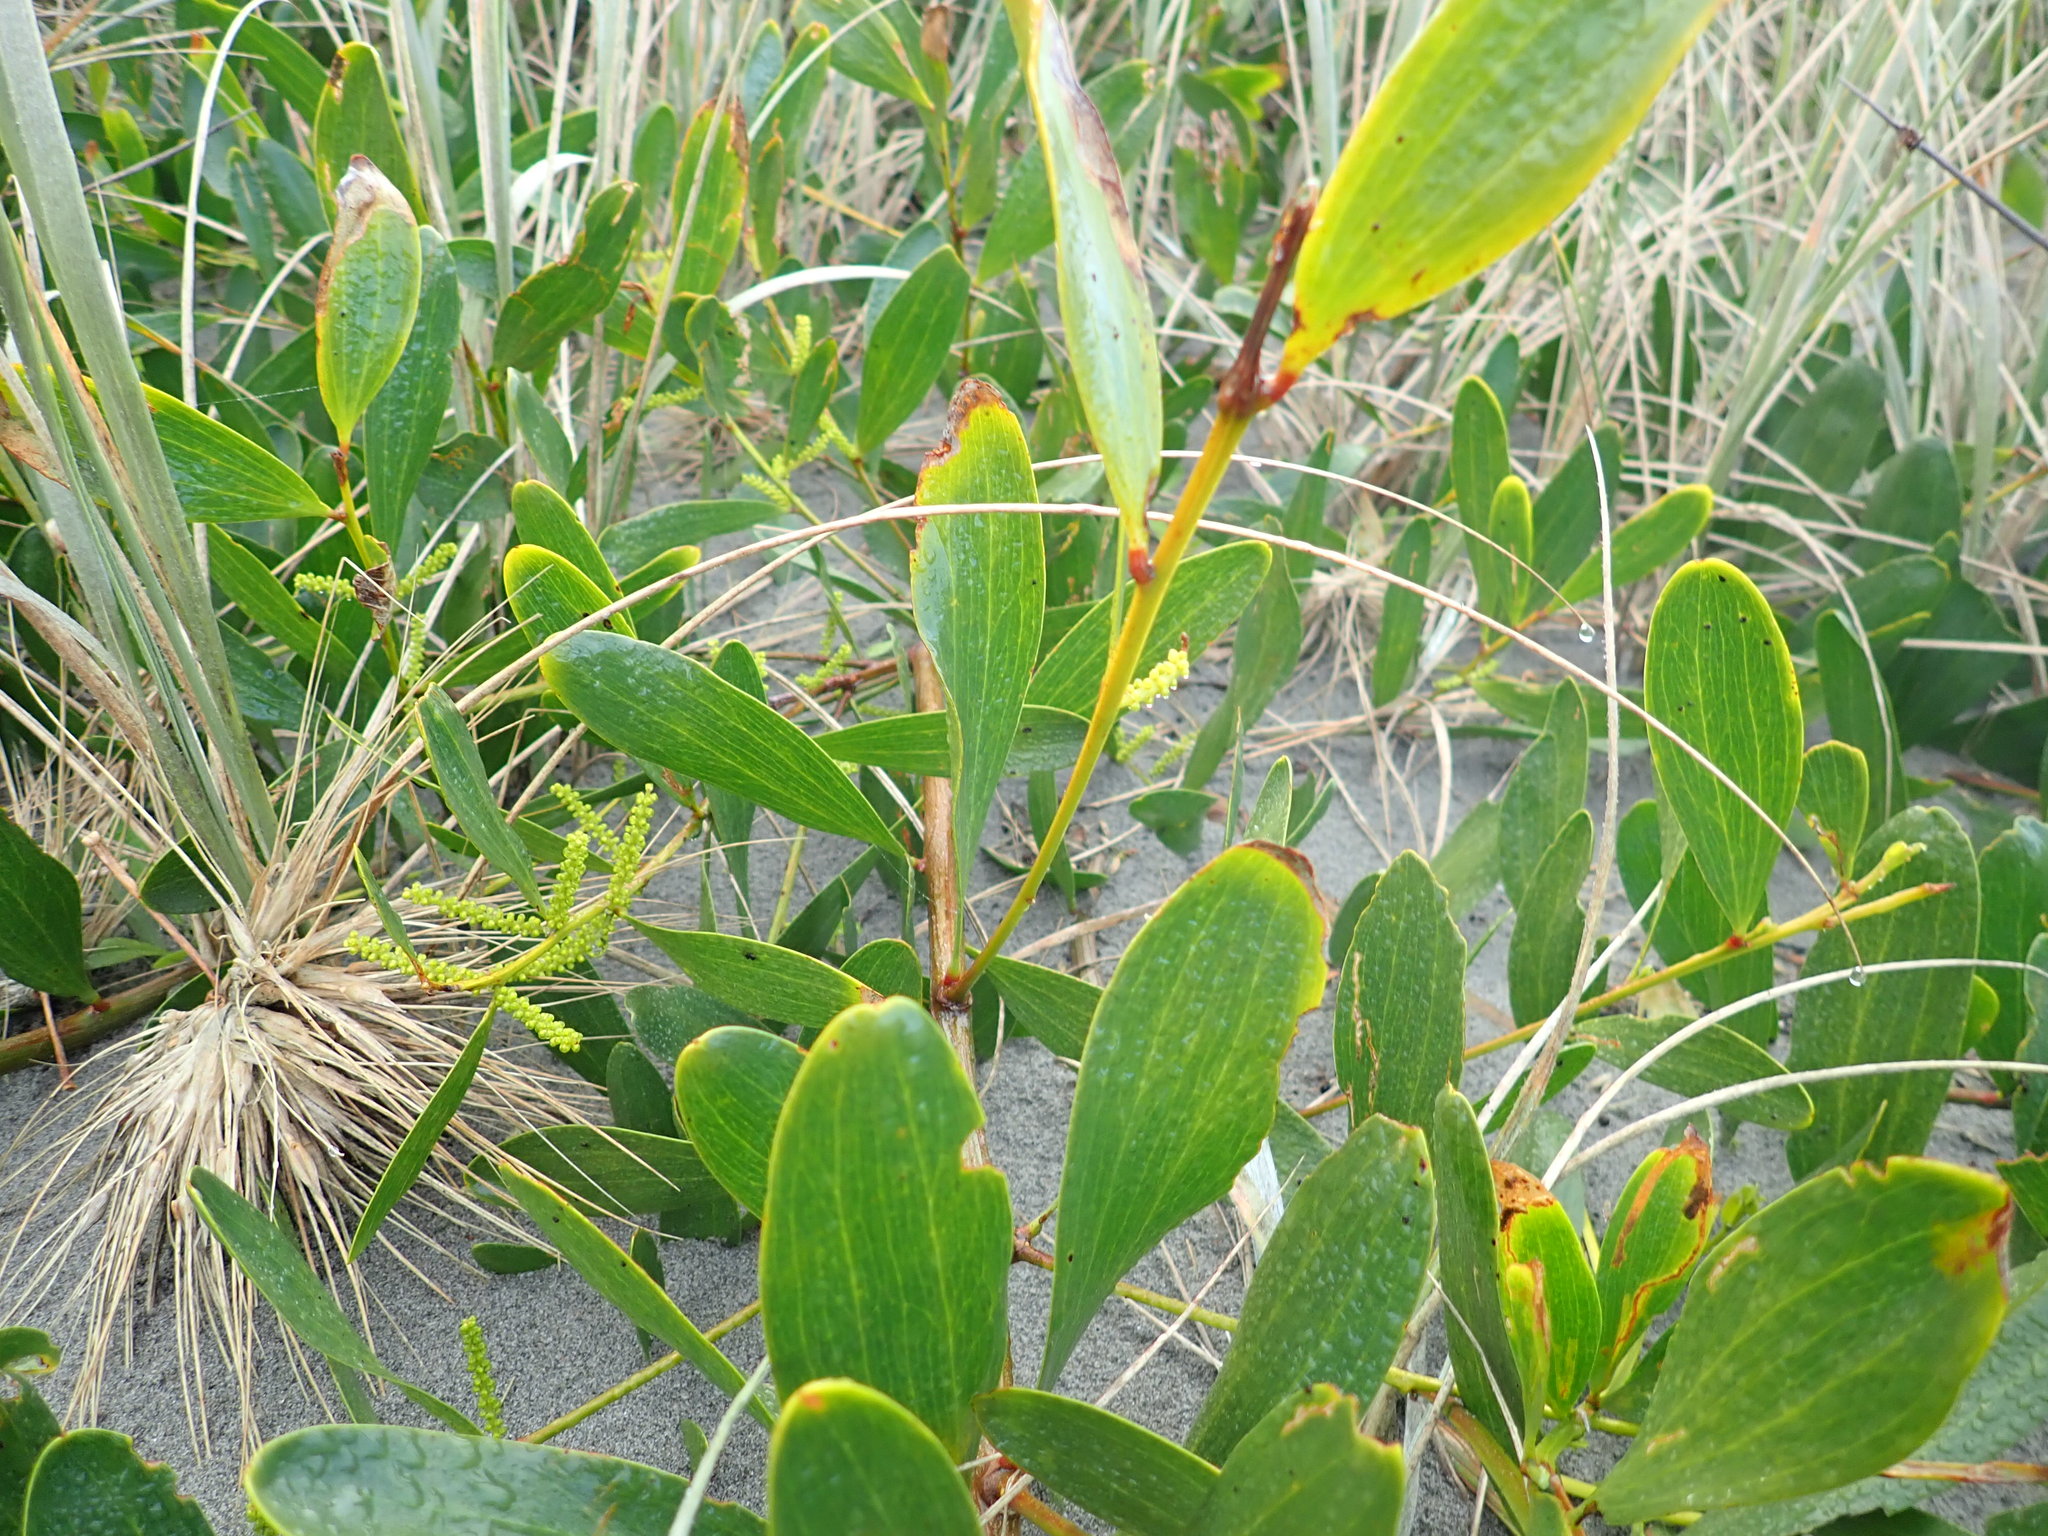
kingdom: Plantae
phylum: Tracheophyta
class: Magnoliopsida
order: Fabales
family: Fabaceae
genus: Acacia
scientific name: Acacia longifolia
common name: Sydney golden wattle
